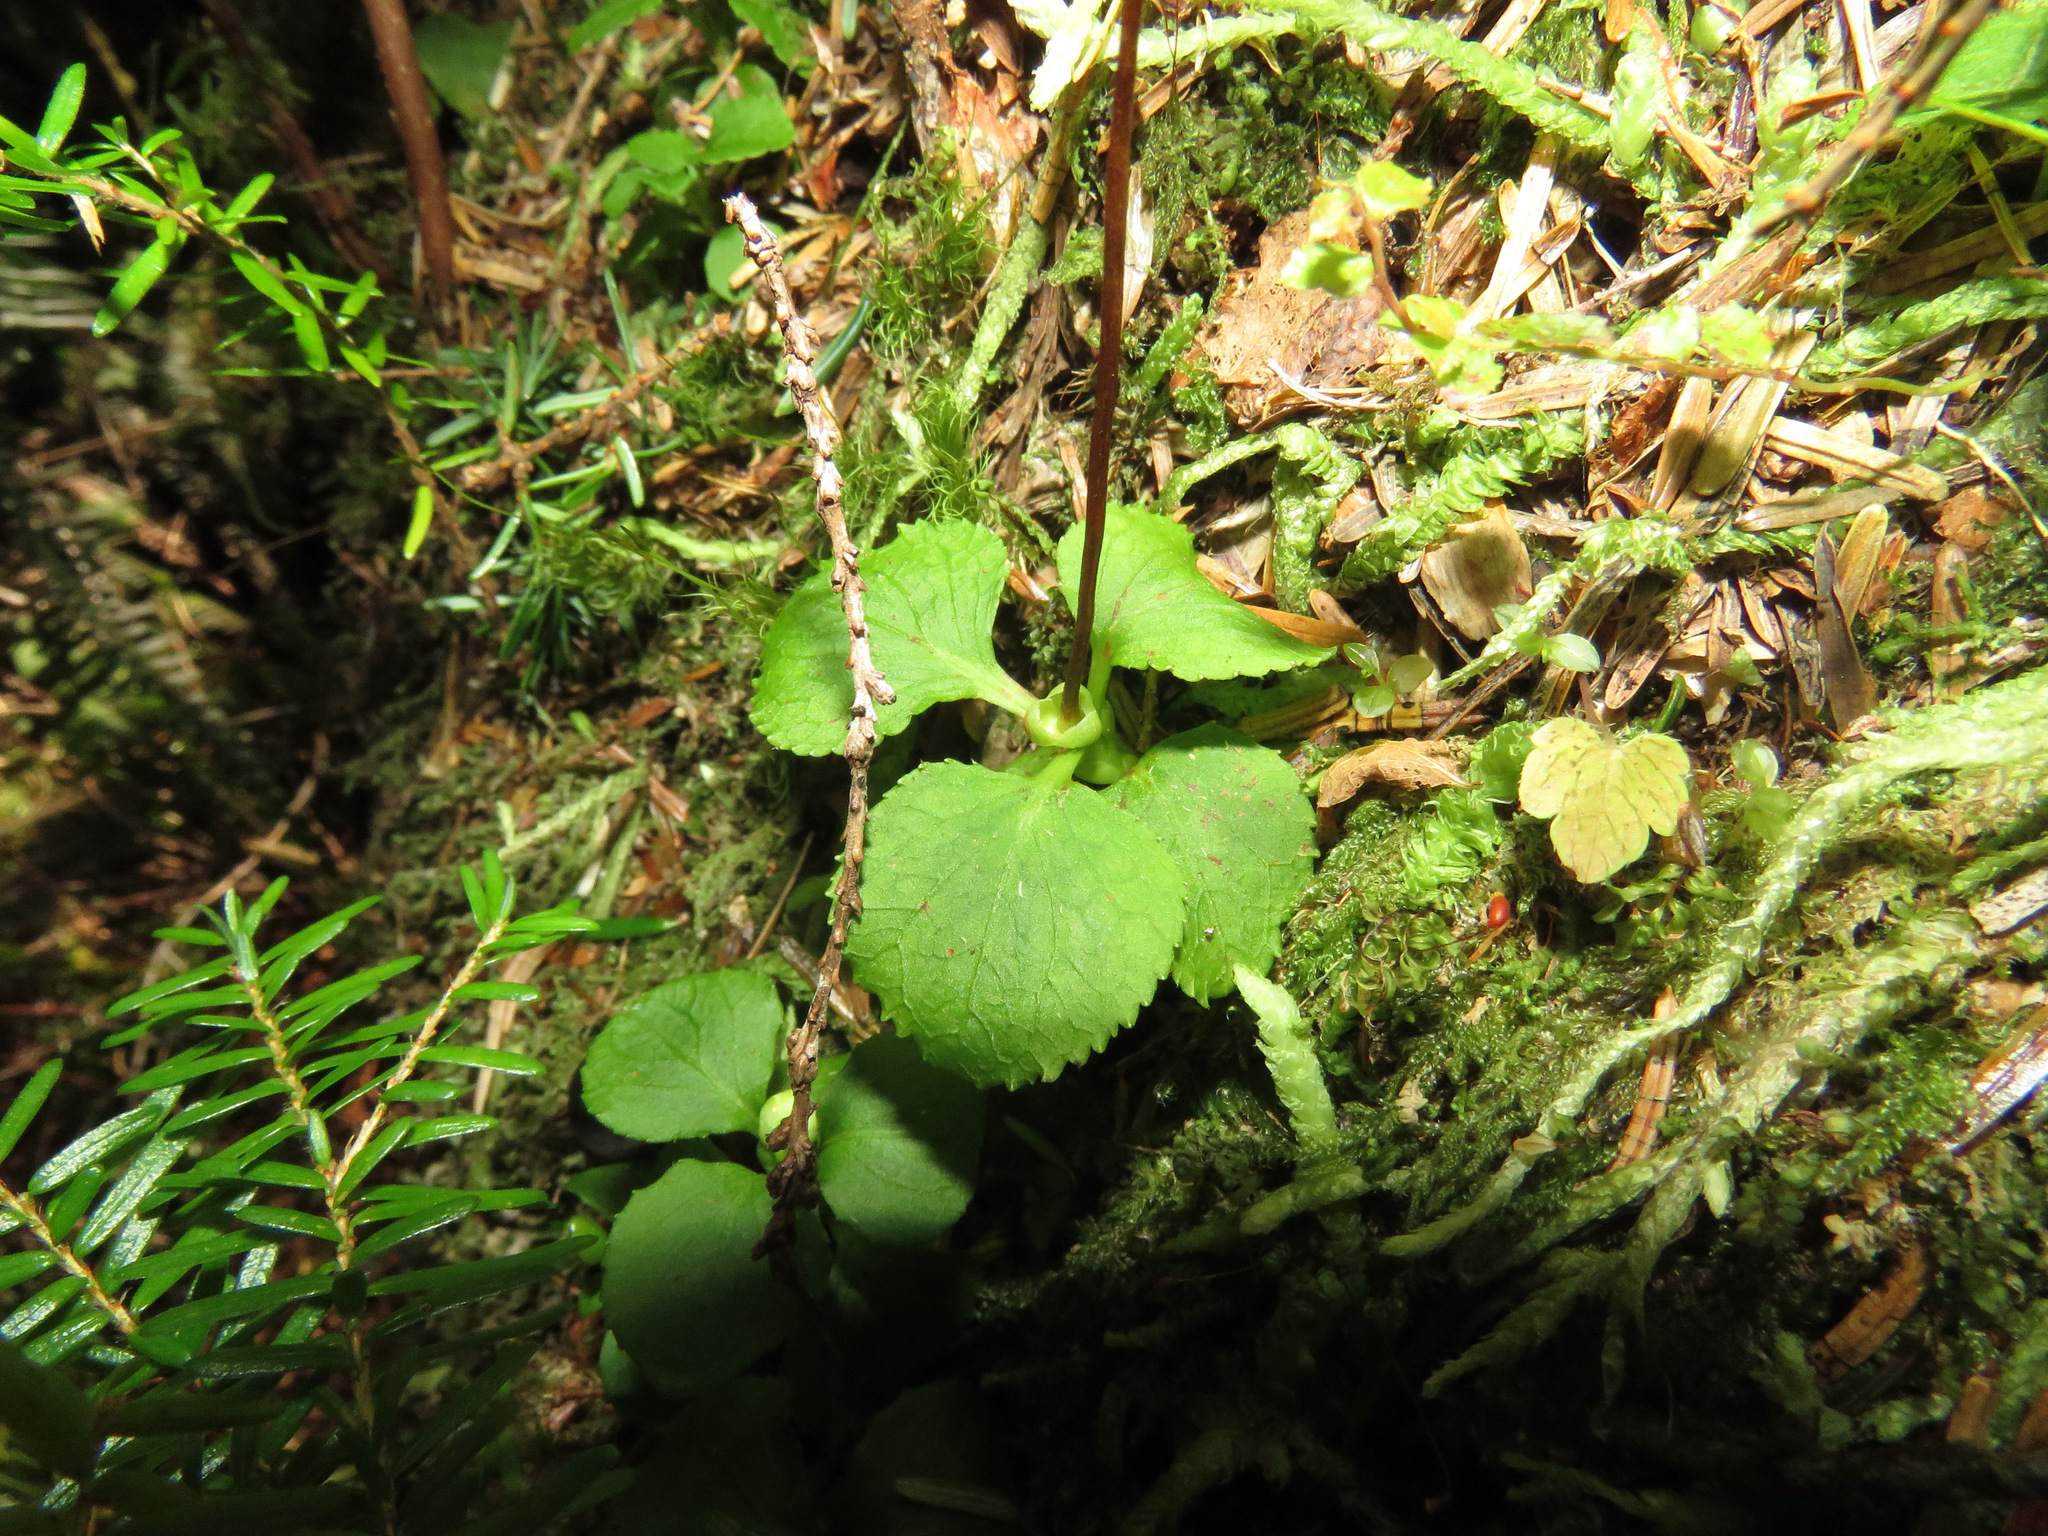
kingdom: Plantae
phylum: Tracheophyta
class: Magnoliopsida
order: Ericales
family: Ericaceae
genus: Moneses
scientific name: Moneses uniflora
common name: One-flowered wintergreen
